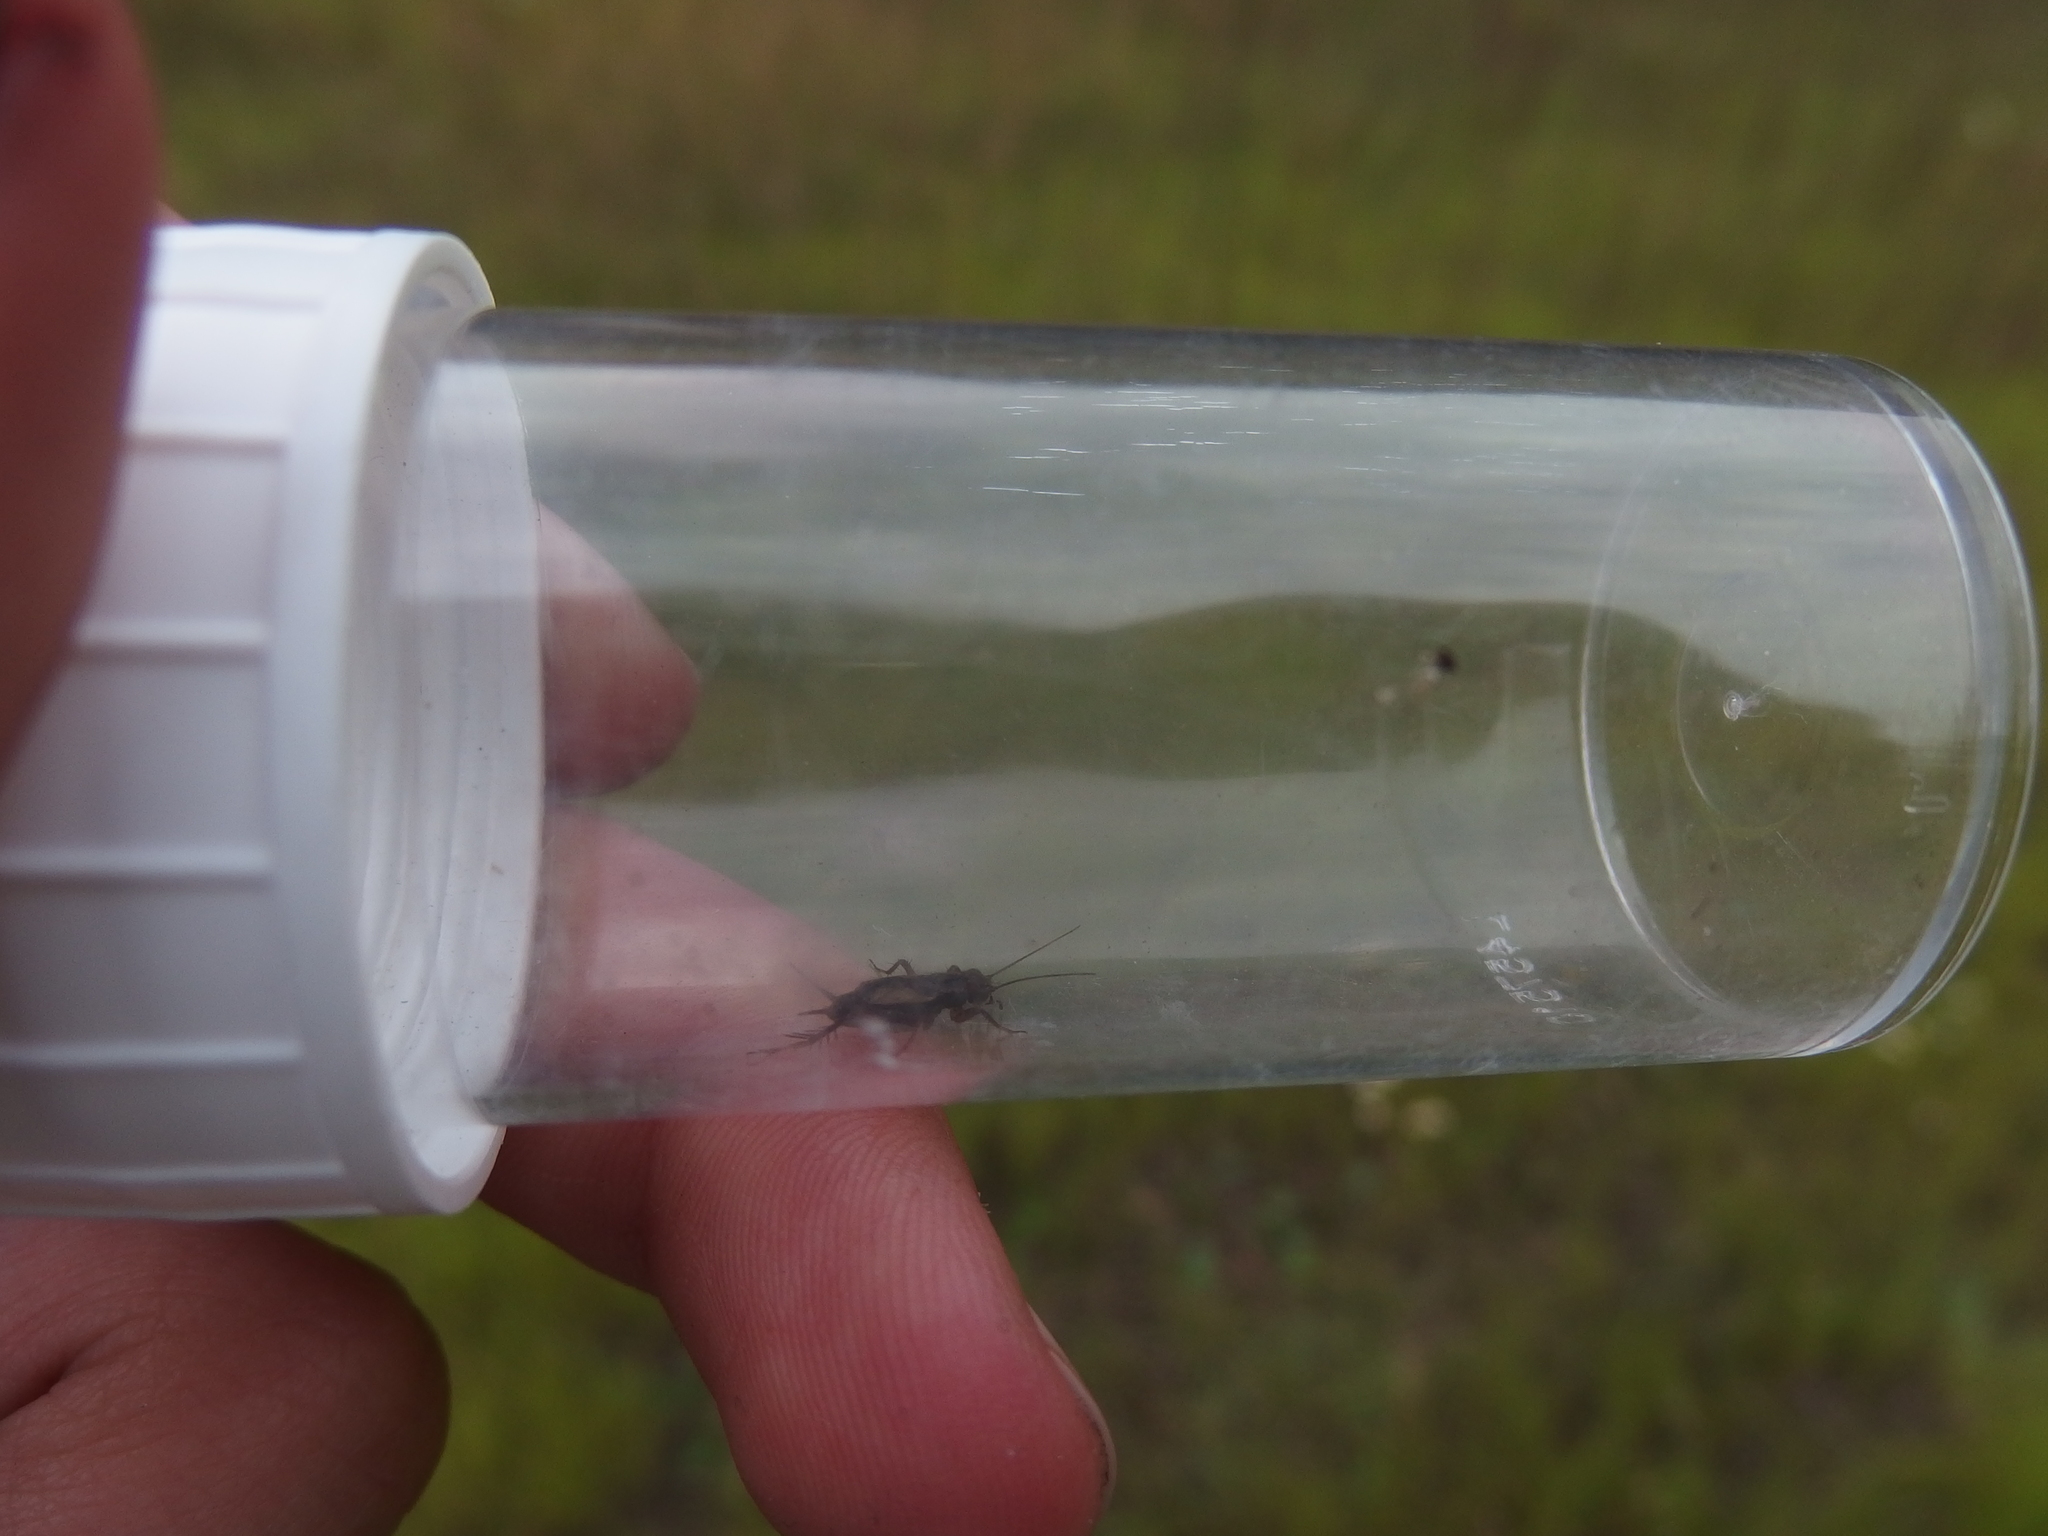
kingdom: Animalia
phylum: Arthropoda
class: Insecta
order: Orthoptera
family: Trigonidiidae
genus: Pteronemobius
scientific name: Pteronemobius heydenii
